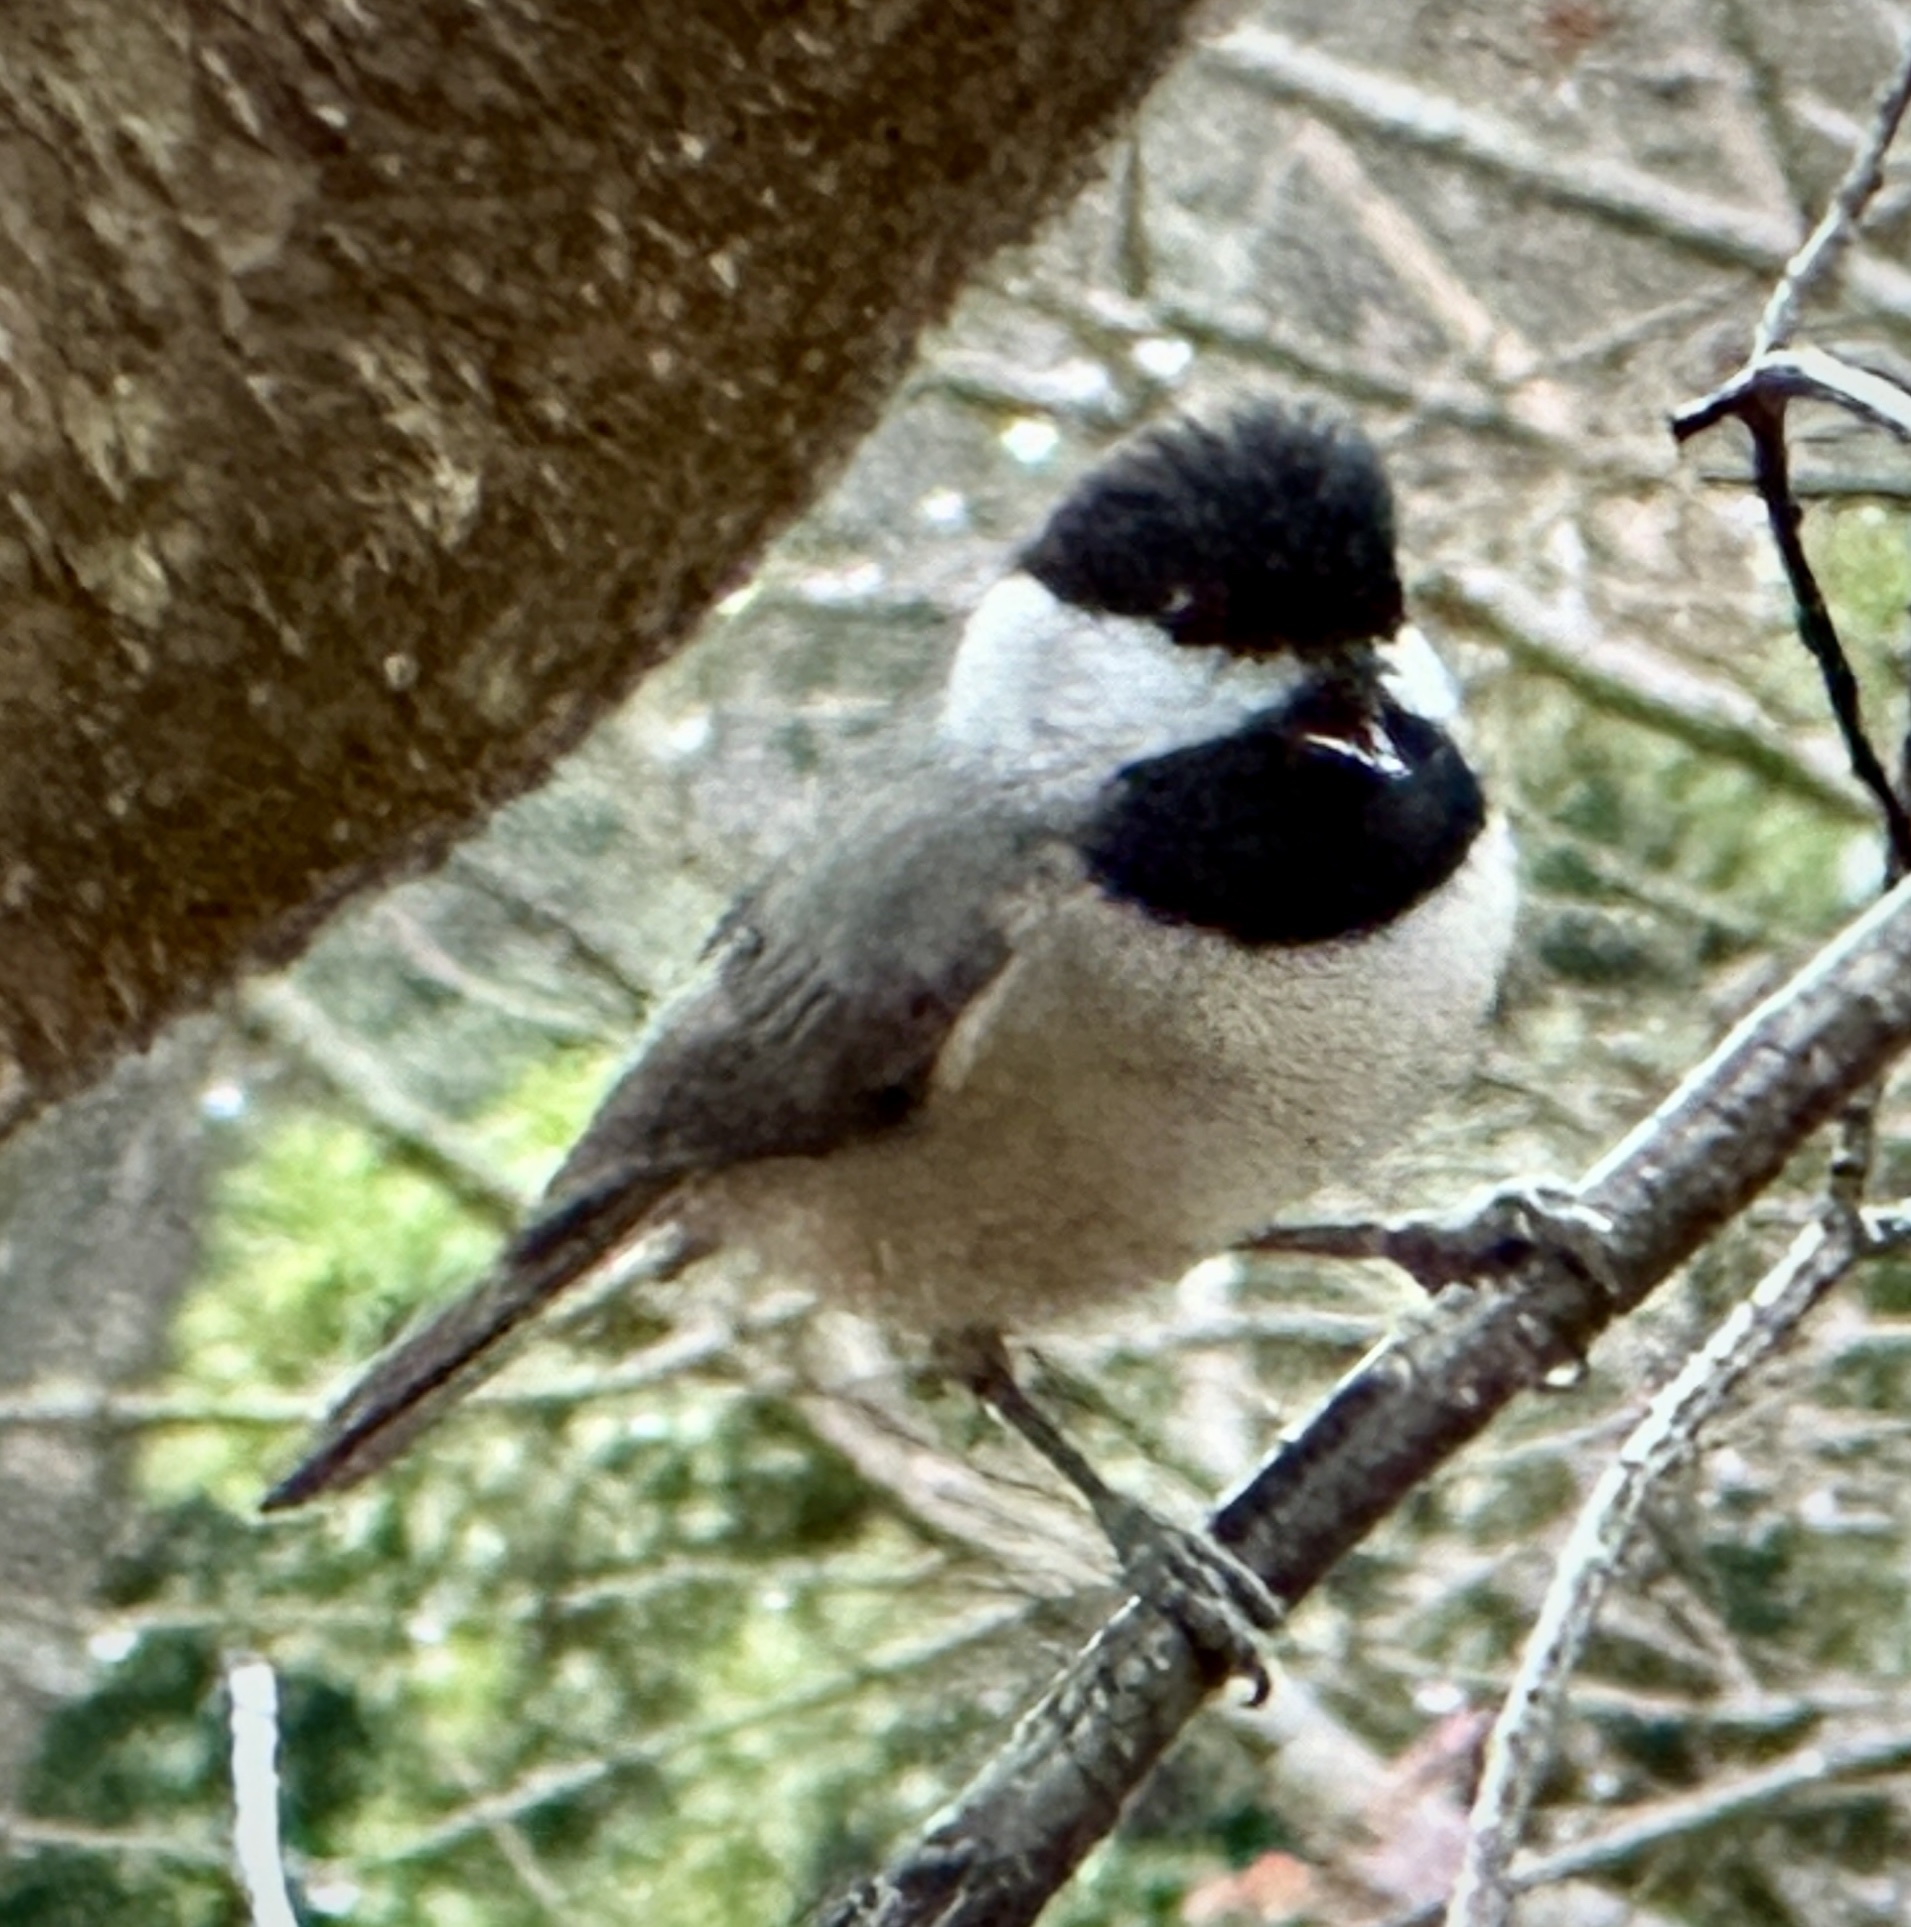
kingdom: Animalia
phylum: Chordata
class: Aves
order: Passeriformes
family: Paridae
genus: Poecile
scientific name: Poecile carolinensis
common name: Carolina chickadee
